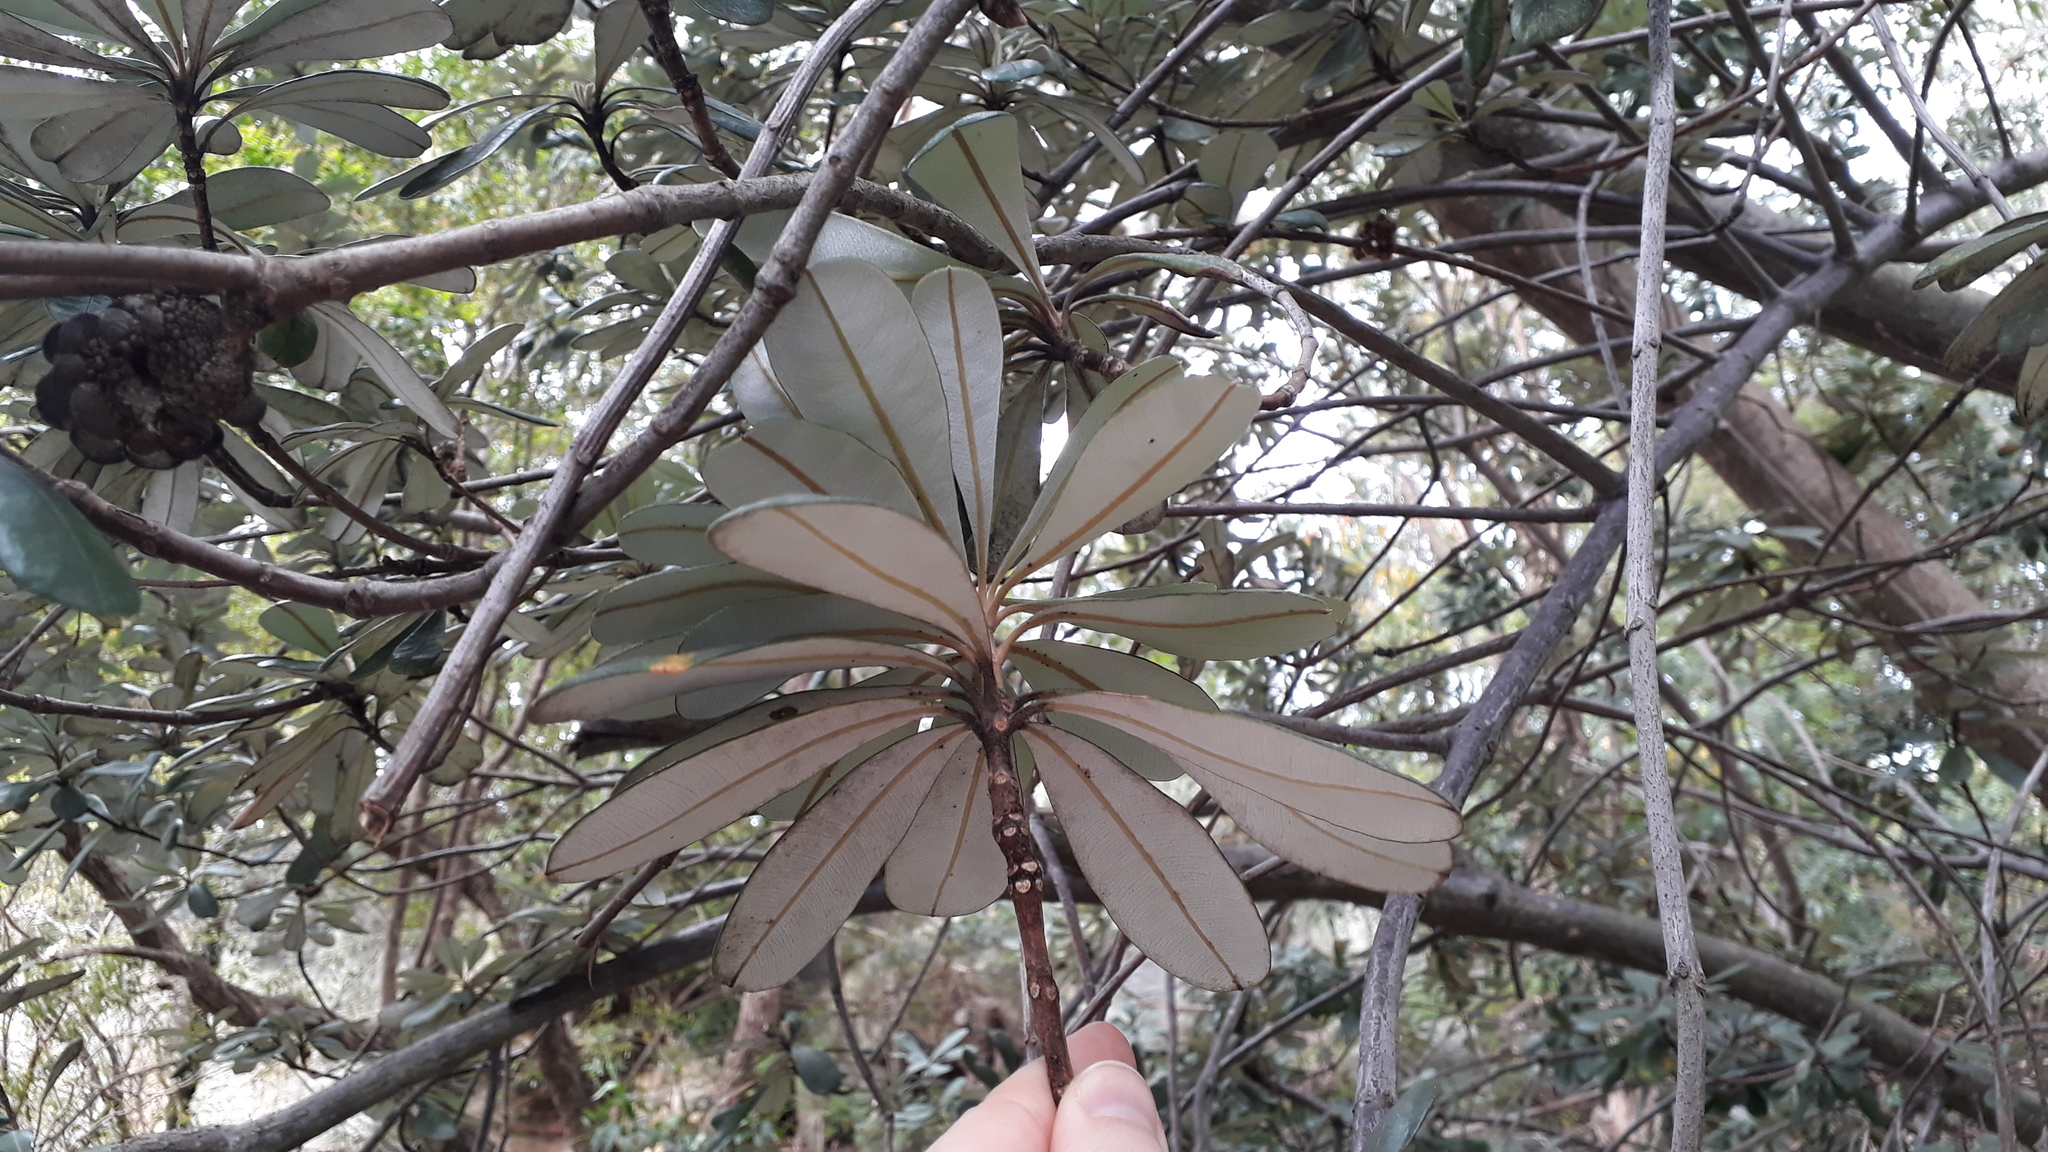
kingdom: Plantae
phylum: Tracheophyta
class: Magnoliopsida
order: Proteales
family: Proteaceae
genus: Banksia
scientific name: Banksia integrifolia
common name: White-honeysuckle
